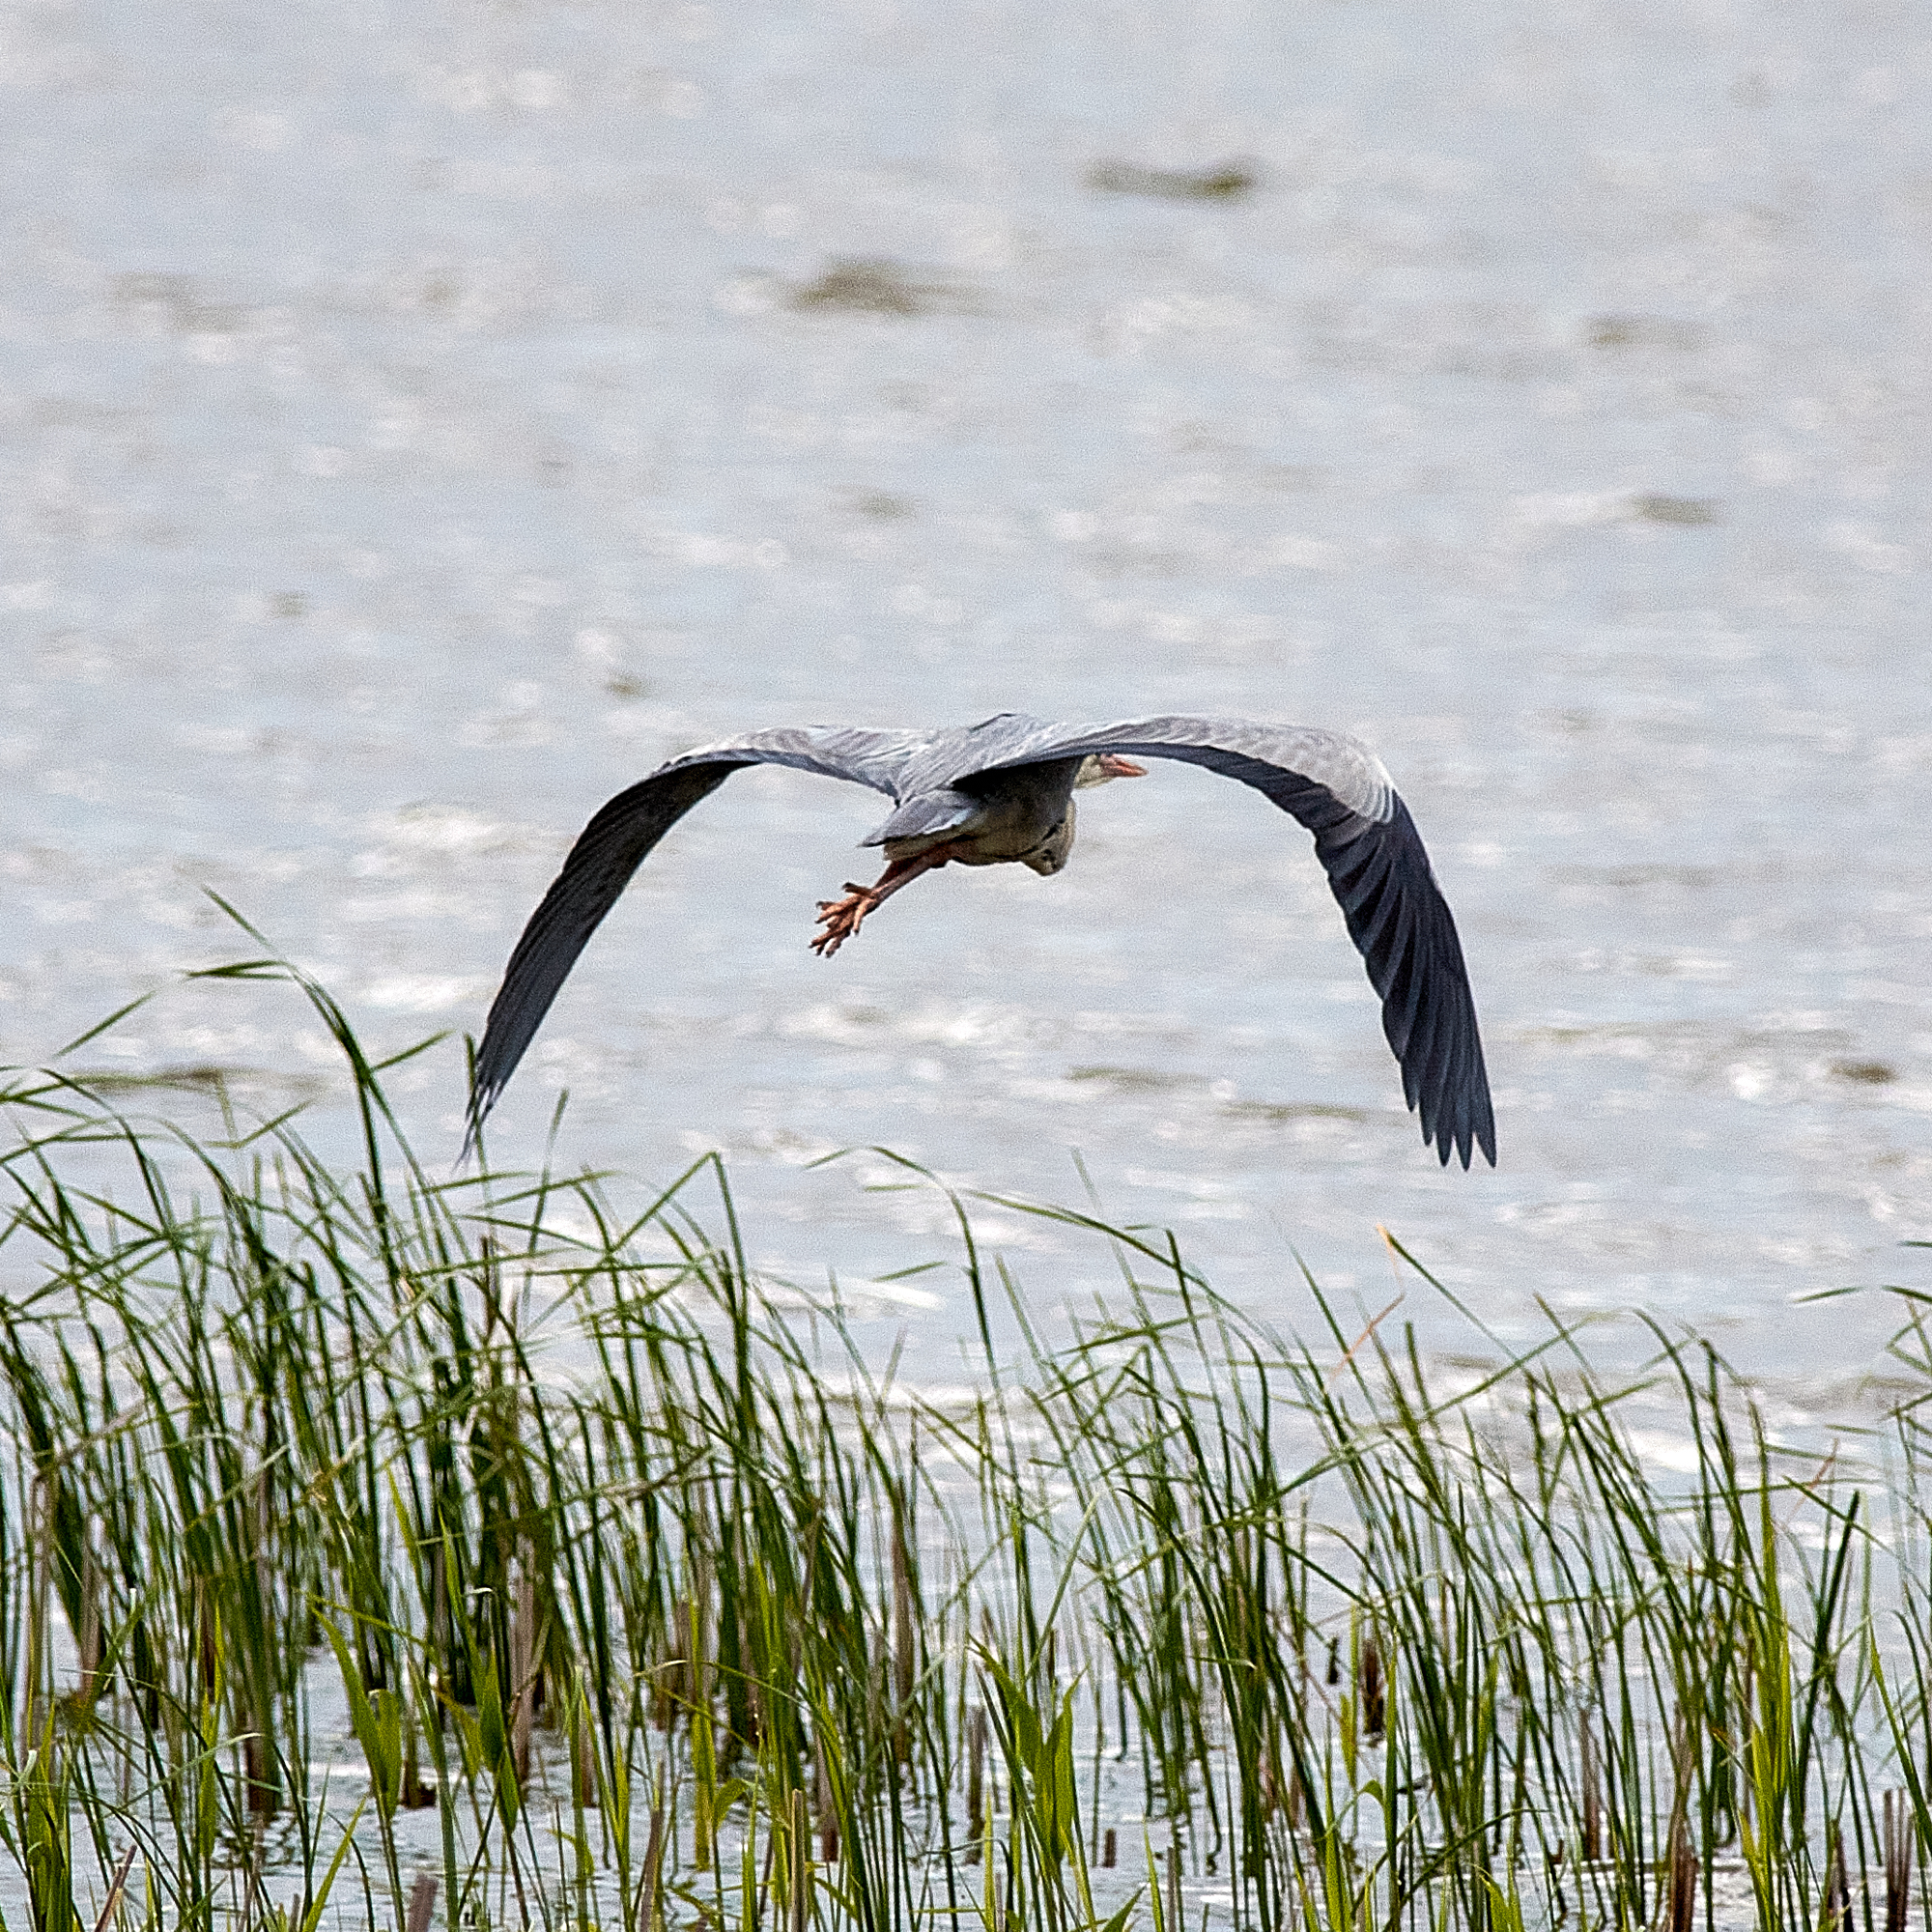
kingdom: Animalia
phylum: Chordata
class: Aves
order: Pelecaniformes
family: Ardeidae
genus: Ardea
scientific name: Ardea cinerea
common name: Grey heron
